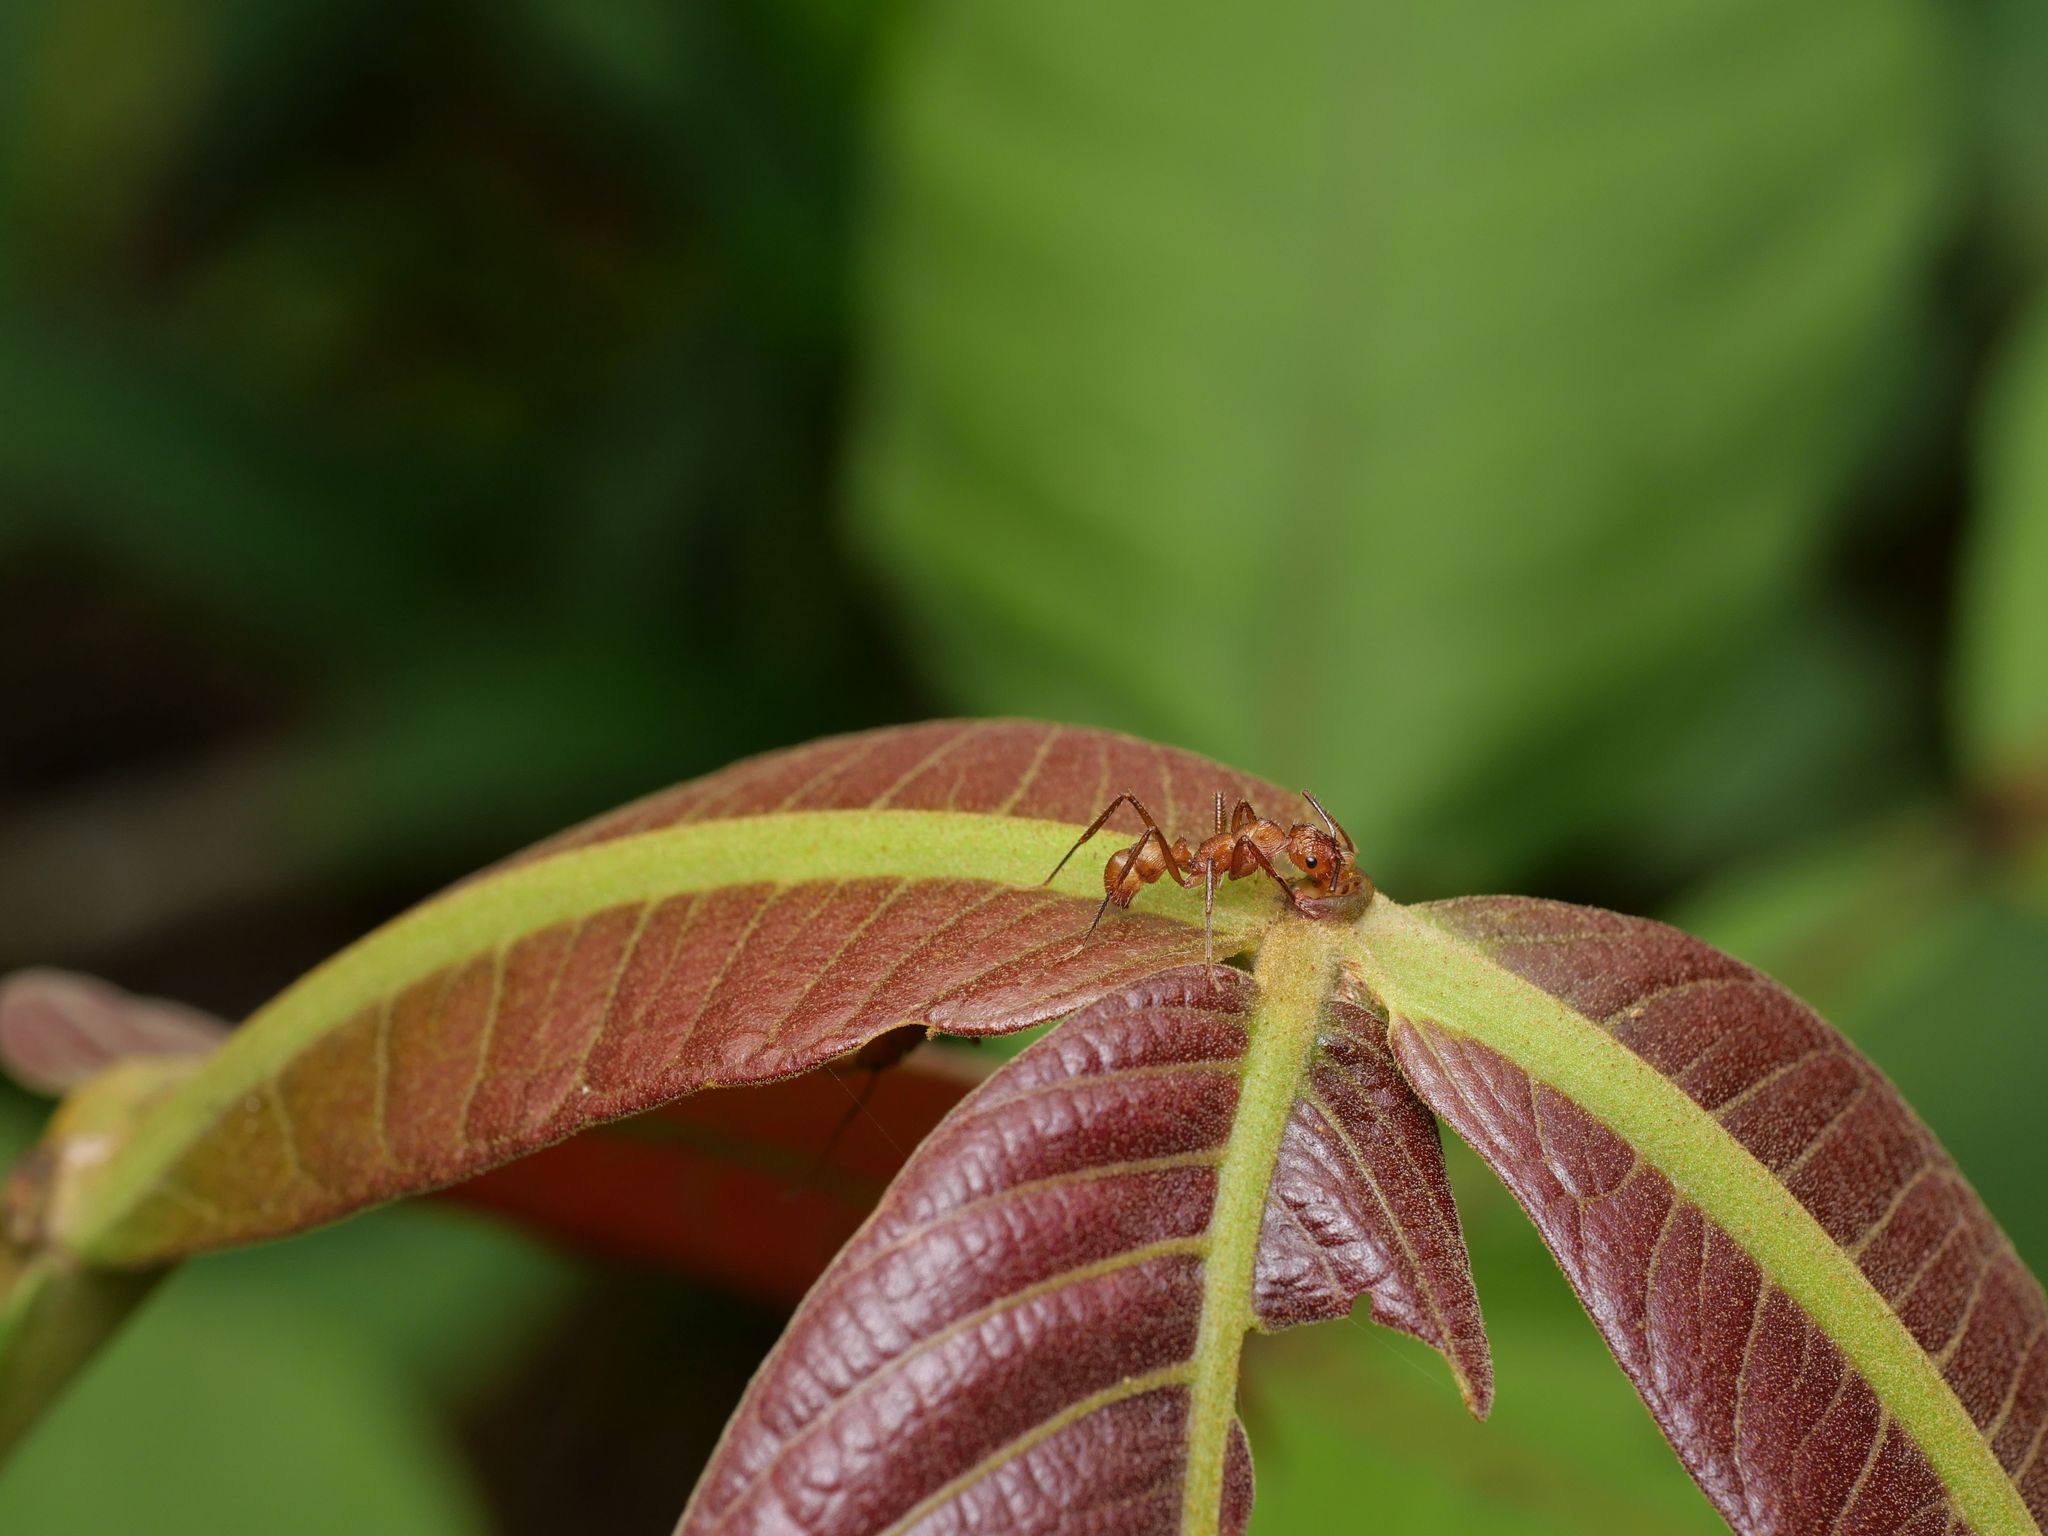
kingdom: Animalia
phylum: Arthropoda
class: Insecta
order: Hymenoptera
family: Formicidae
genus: Ectatomma
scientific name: Ectatomma tuberculatum
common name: Ant
